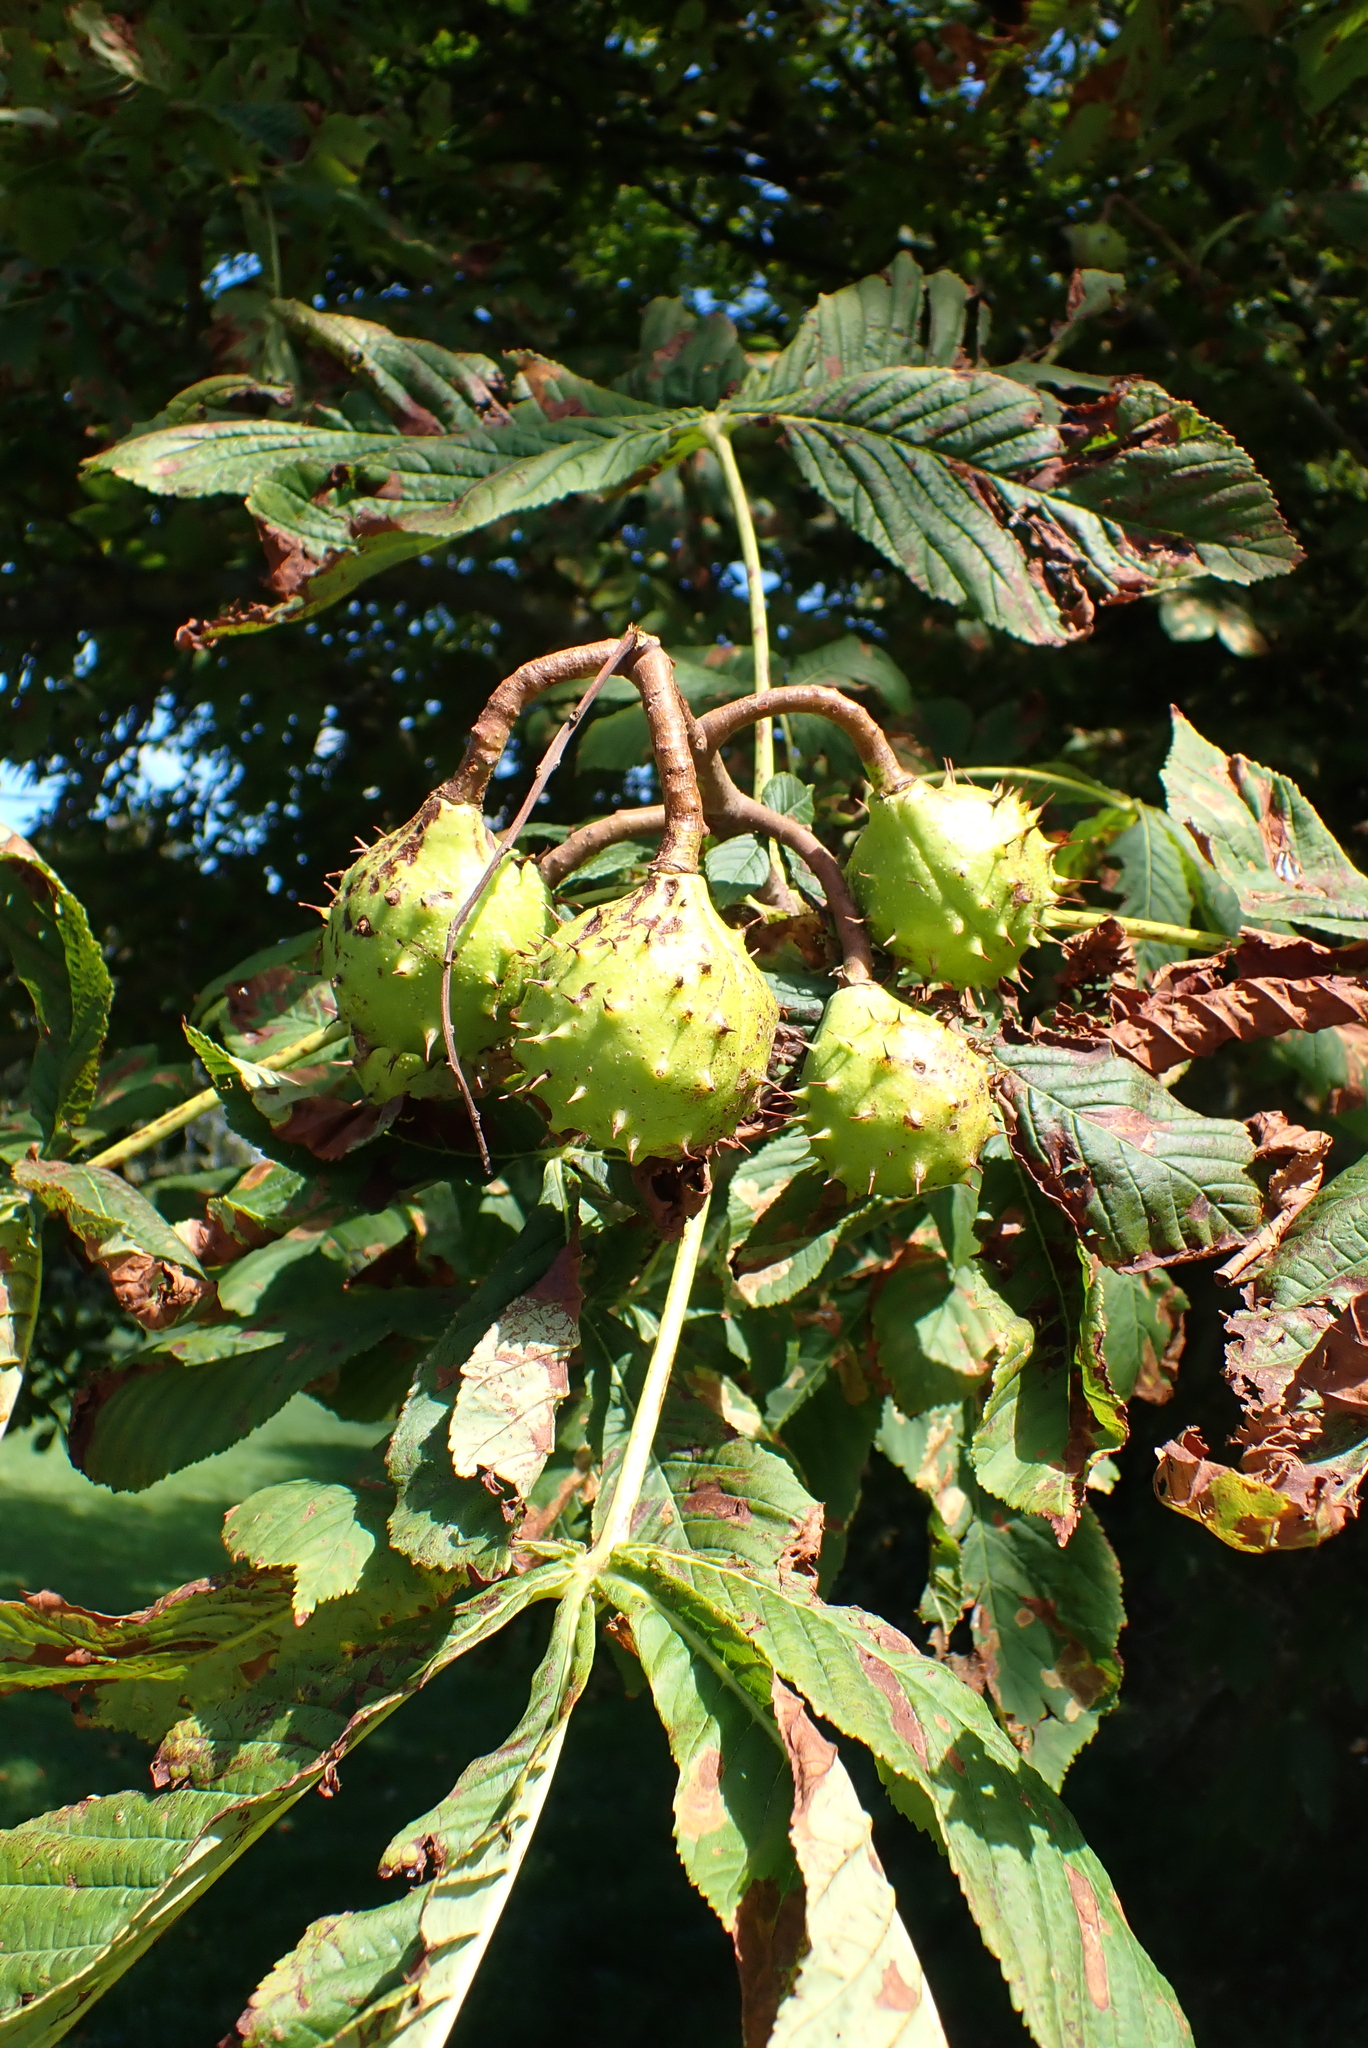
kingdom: Plantae
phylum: Tracheophyta
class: Magnoliopsida
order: Sapindales
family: Sapindaceae
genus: Aesculus
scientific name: Aesculus hippocastanum
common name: Horse-chestnut
